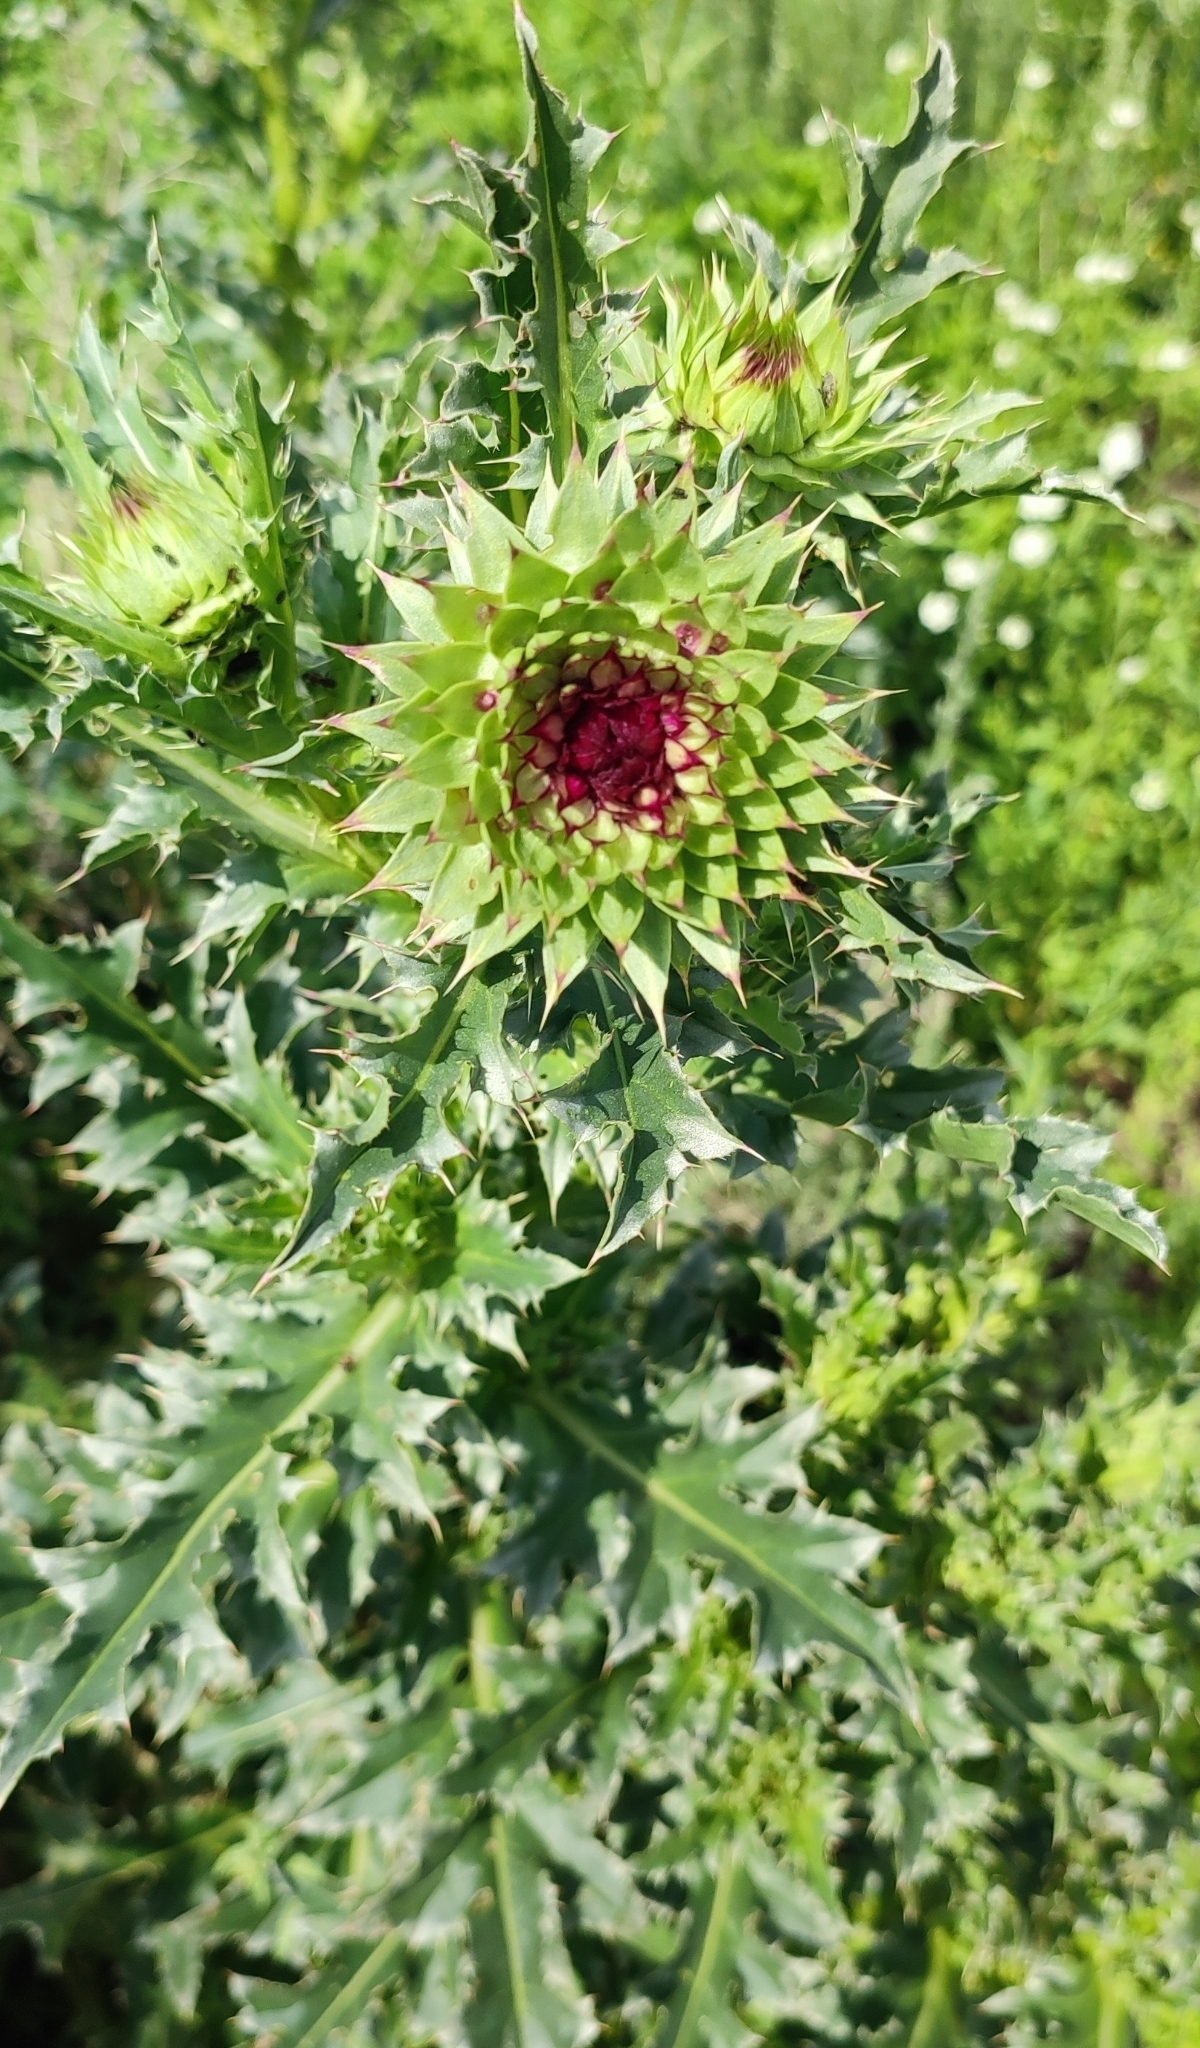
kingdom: Plantae
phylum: Tracheophyta
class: Magnoliopsida
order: Asterales
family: Asteraceae
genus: Carduus
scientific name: Carduus nutans
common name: Musk thistle
